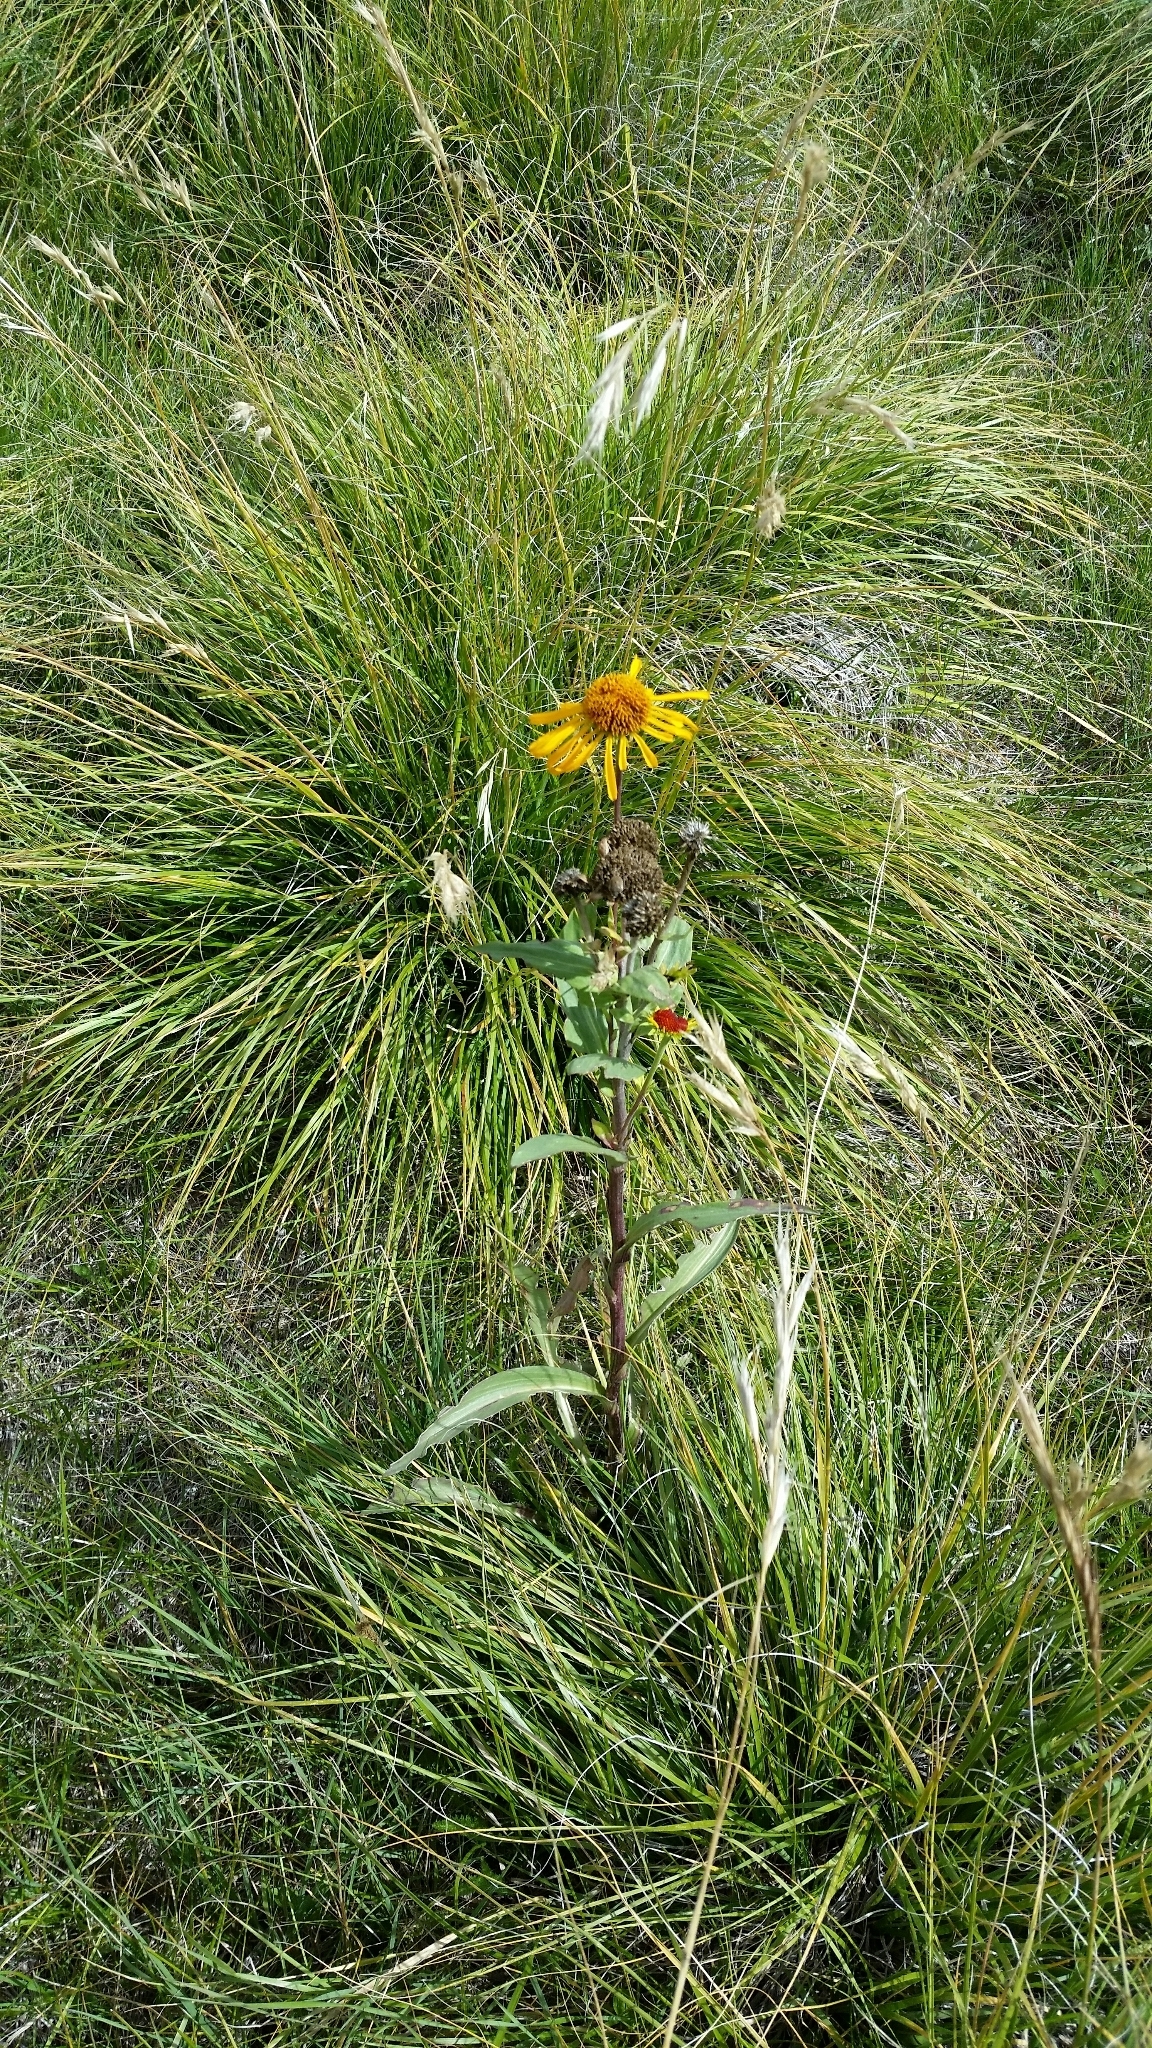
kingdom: Plantae
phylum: Tracheophyta
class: Magnoliopsida
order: Asterales
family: Asteraceae
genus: Hymenoxys
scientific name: Hymenoxys hoopesii
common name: Orange-sneezeweed
